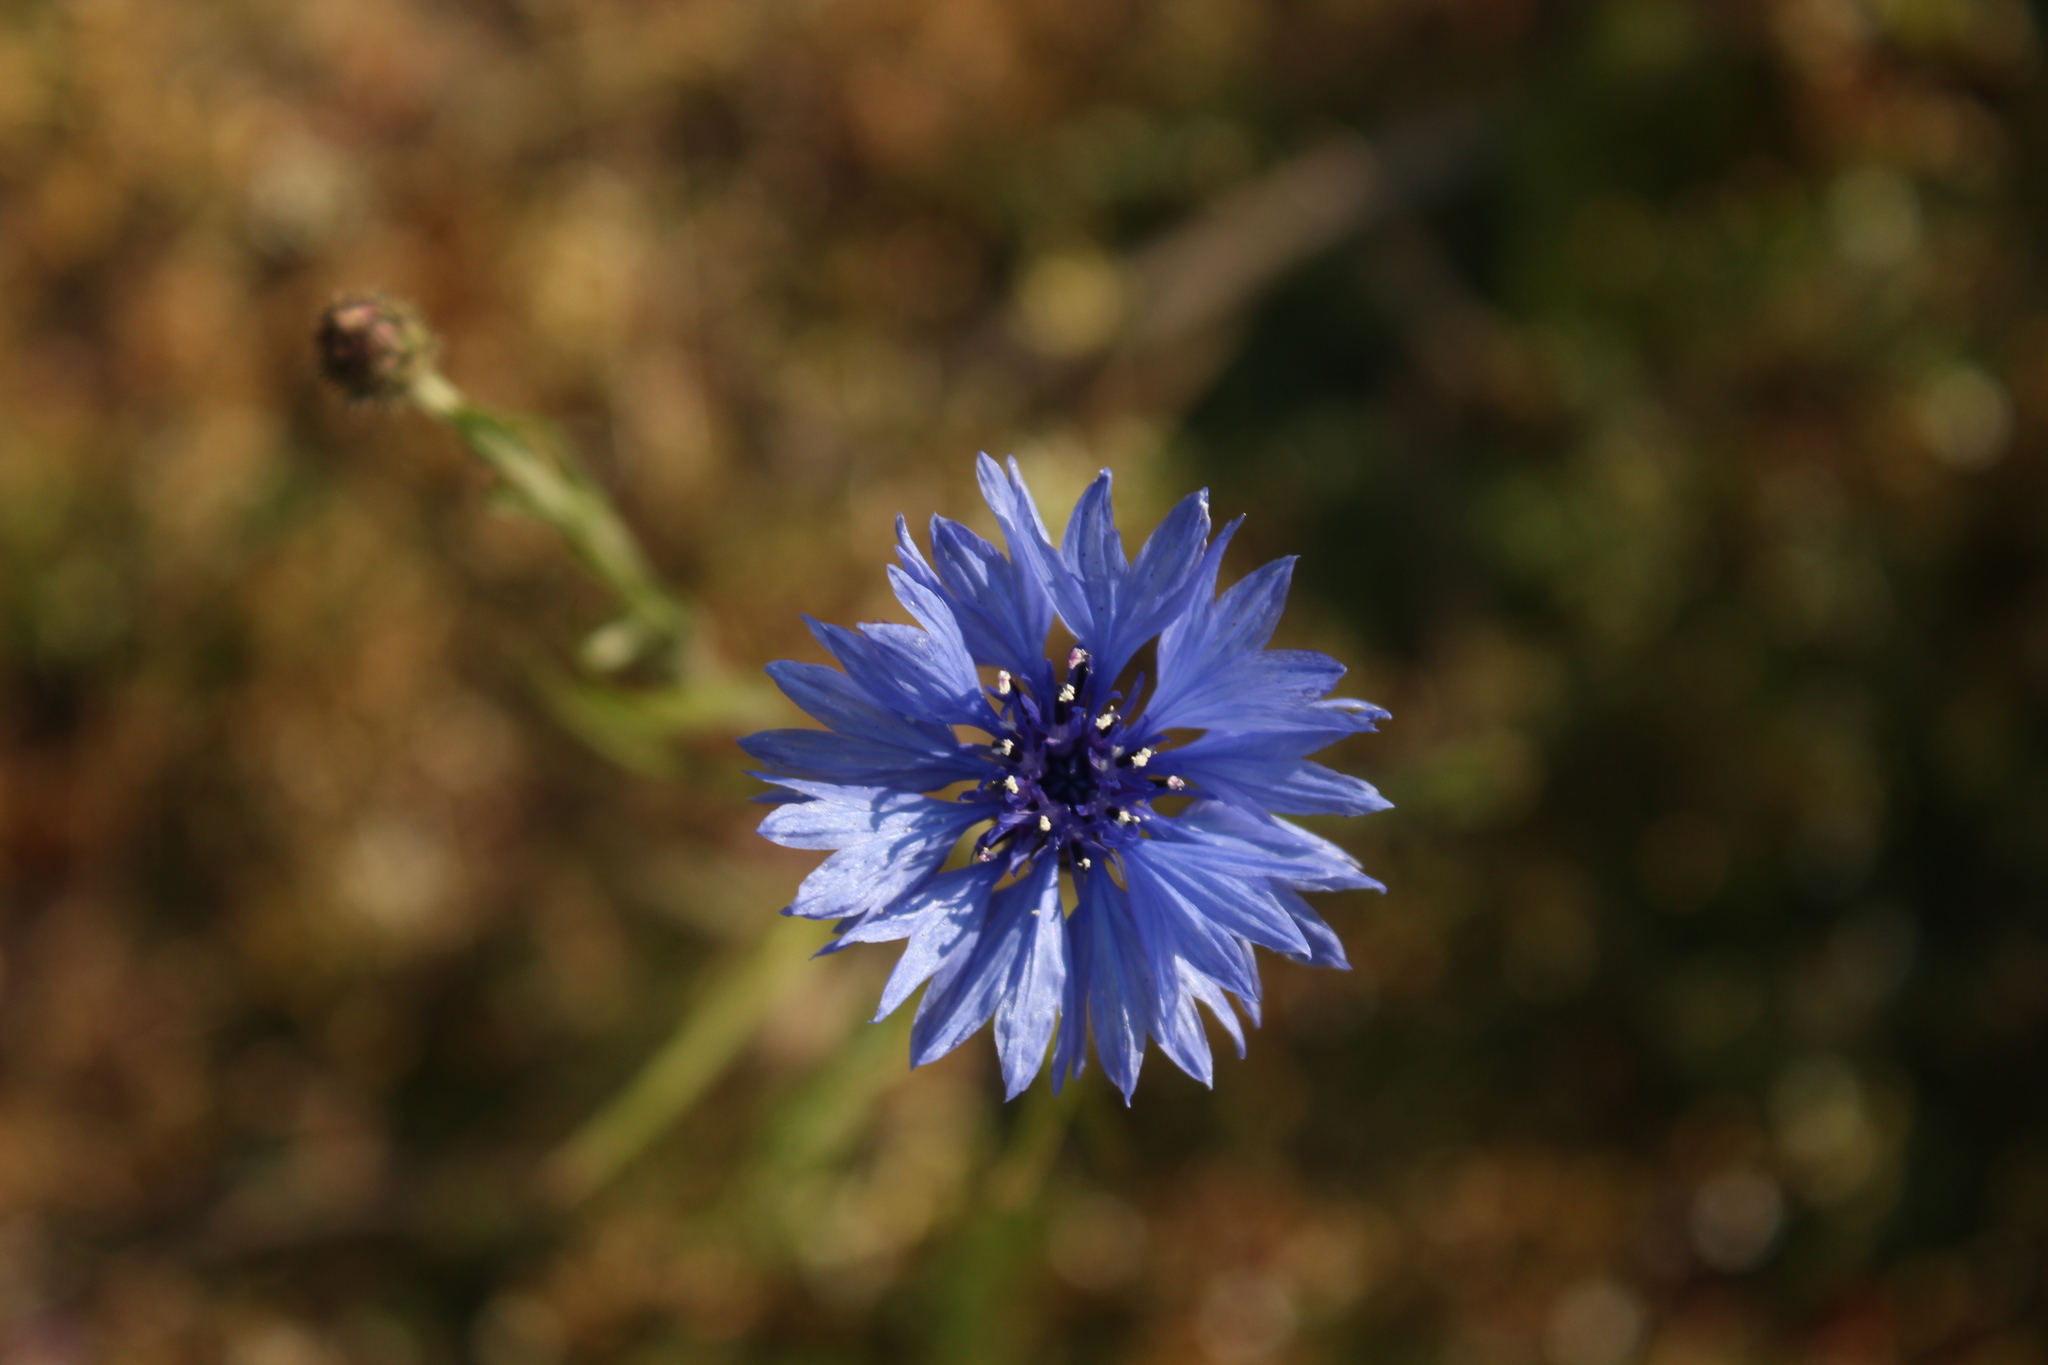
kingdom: Plantae
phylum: Tracheophyta
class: Magnoliopsida
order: Asterales
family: Asteraceae
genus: Centaurea
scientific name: Centaurea cyanus
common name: Cornflower
